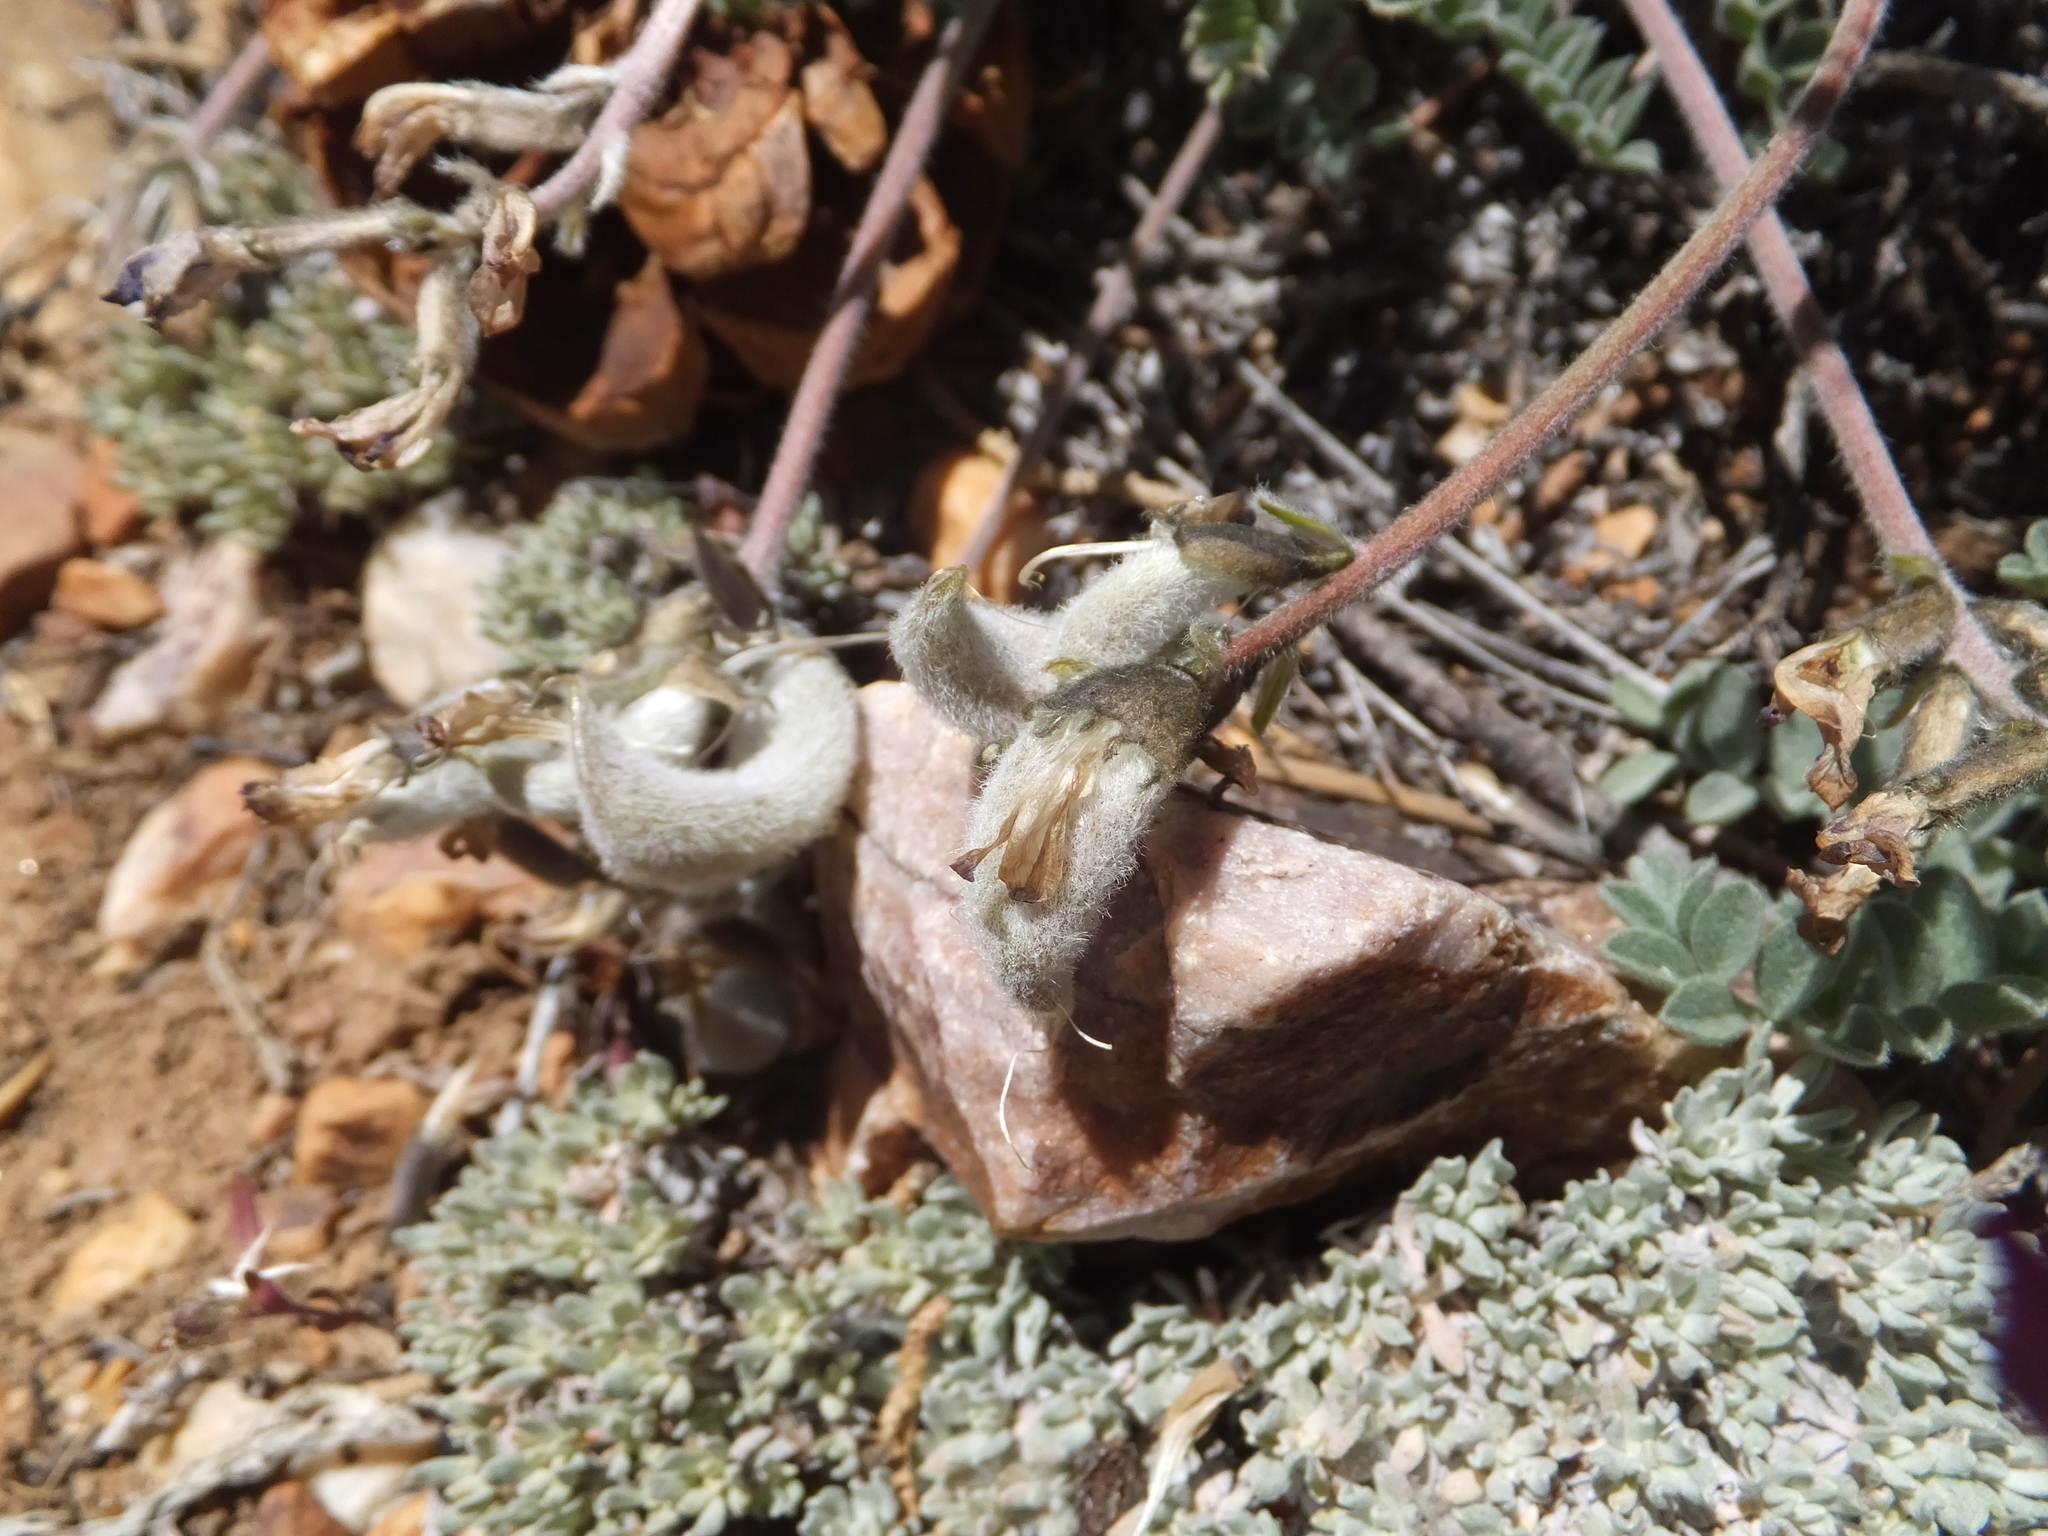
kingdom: Plantae
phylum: Tracheophyta
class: Magnoliopsida
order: Fabales
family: Fabaceae
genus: Astragalus
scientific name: Astragalus leucolobus
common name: Big bear valley woollypod
